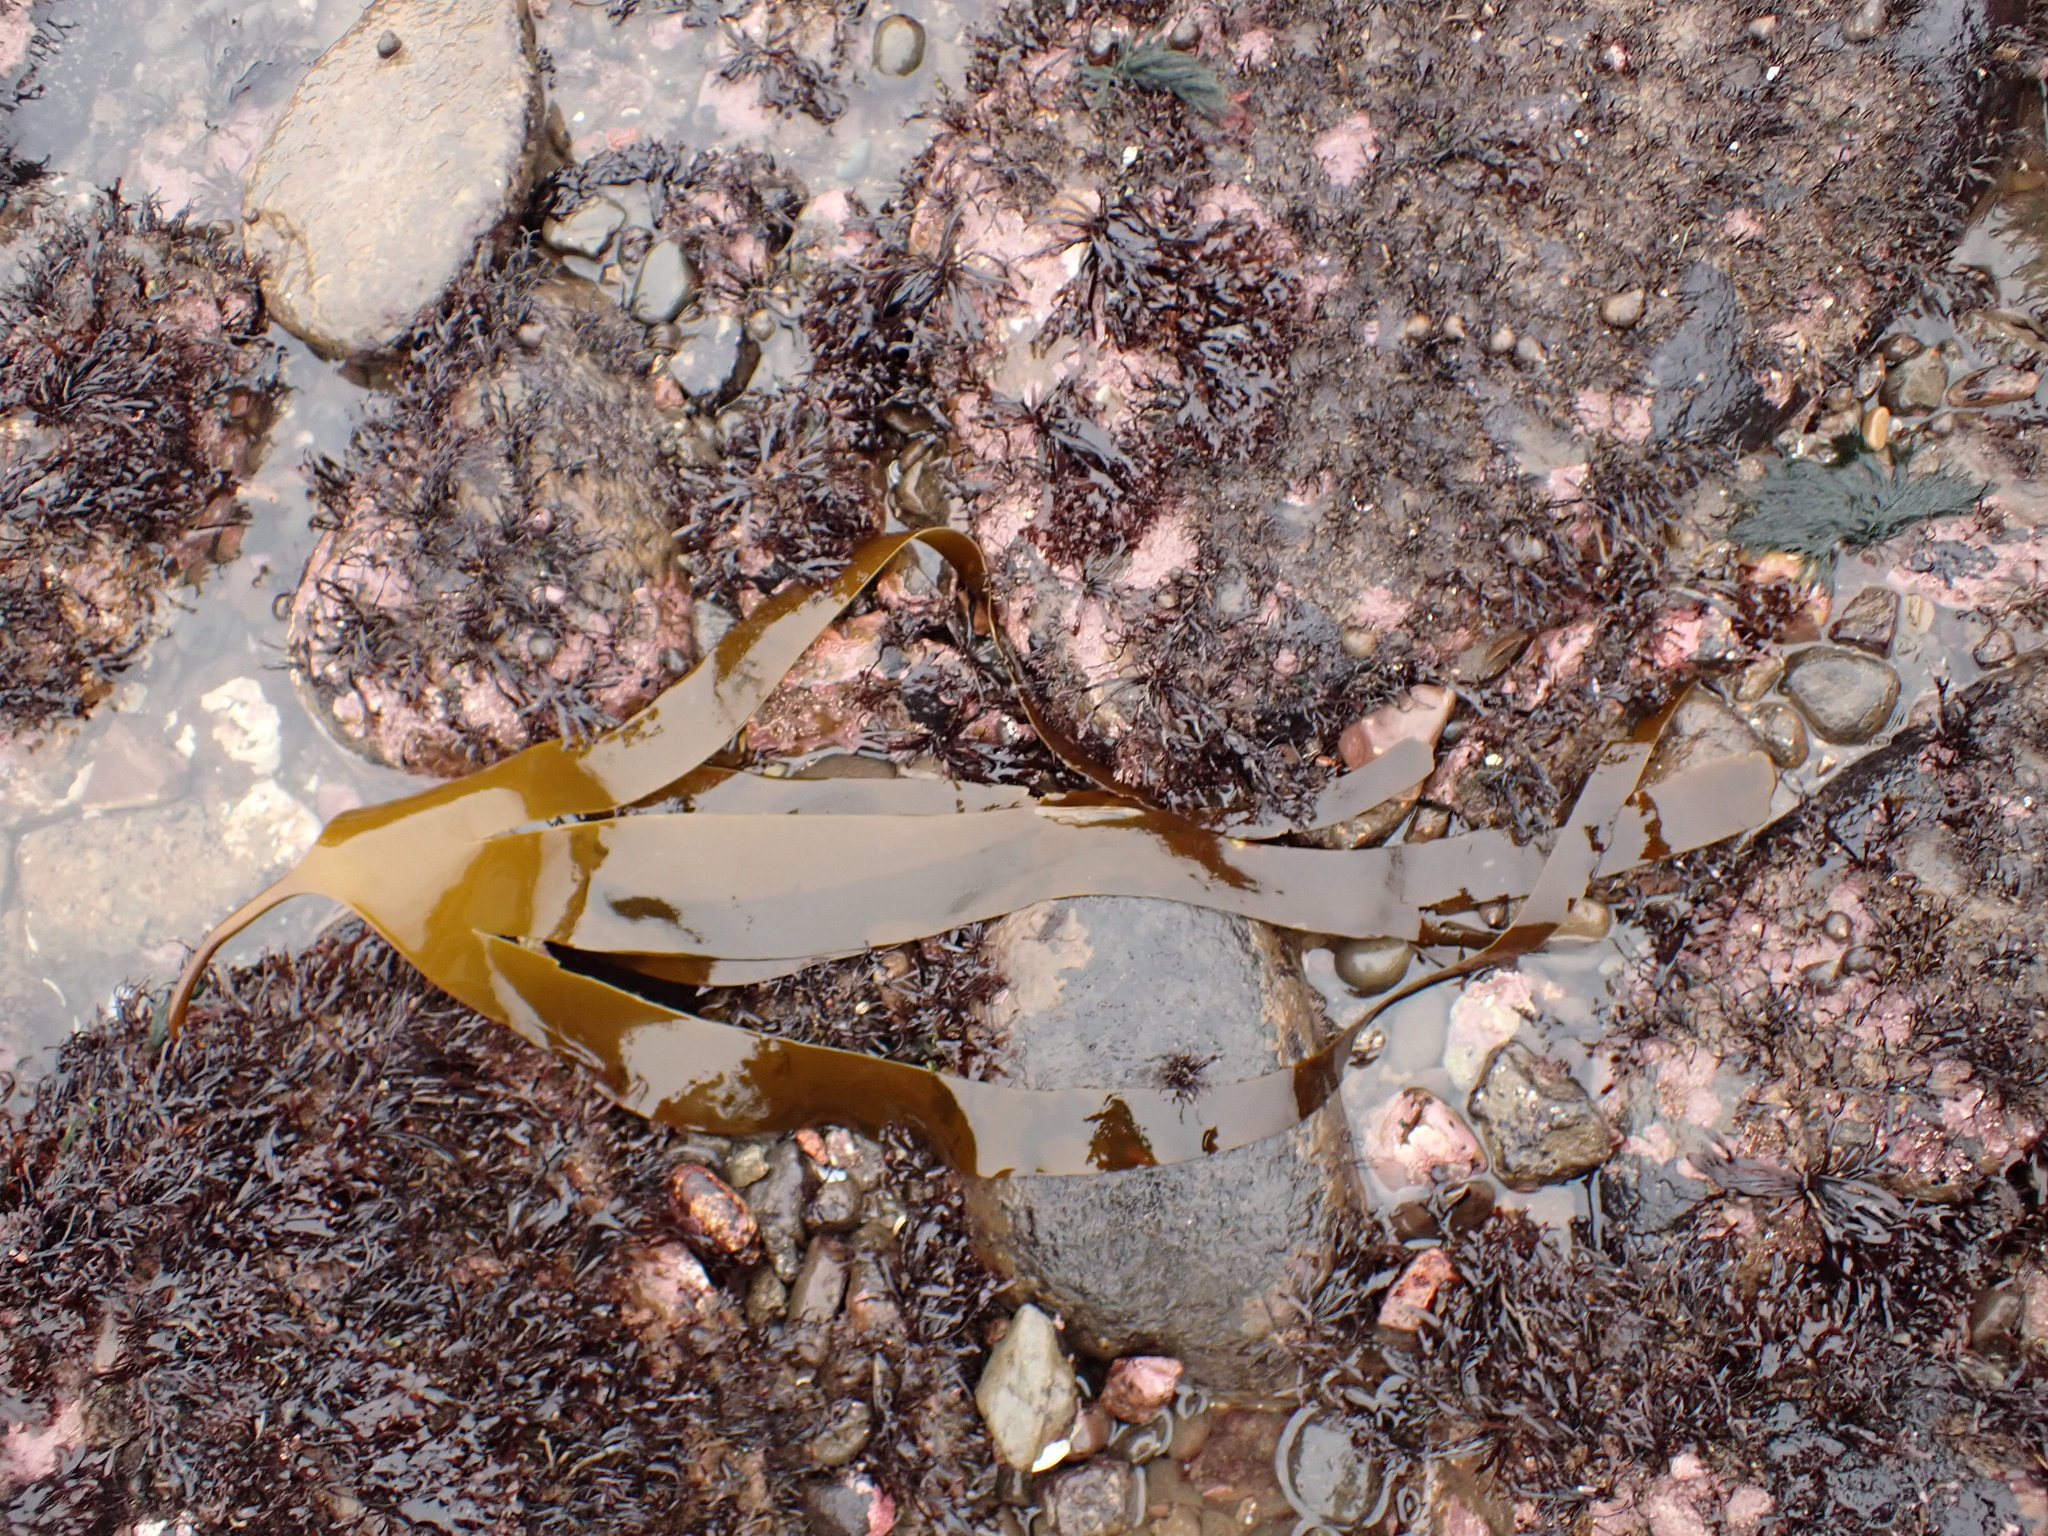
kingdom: Chromista
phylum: Ochrophyta
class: Phaeophyceae
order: Laminariales
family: Laminariaceae
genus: Laminaria
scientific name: Laminaria digitata
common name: Oarweed
